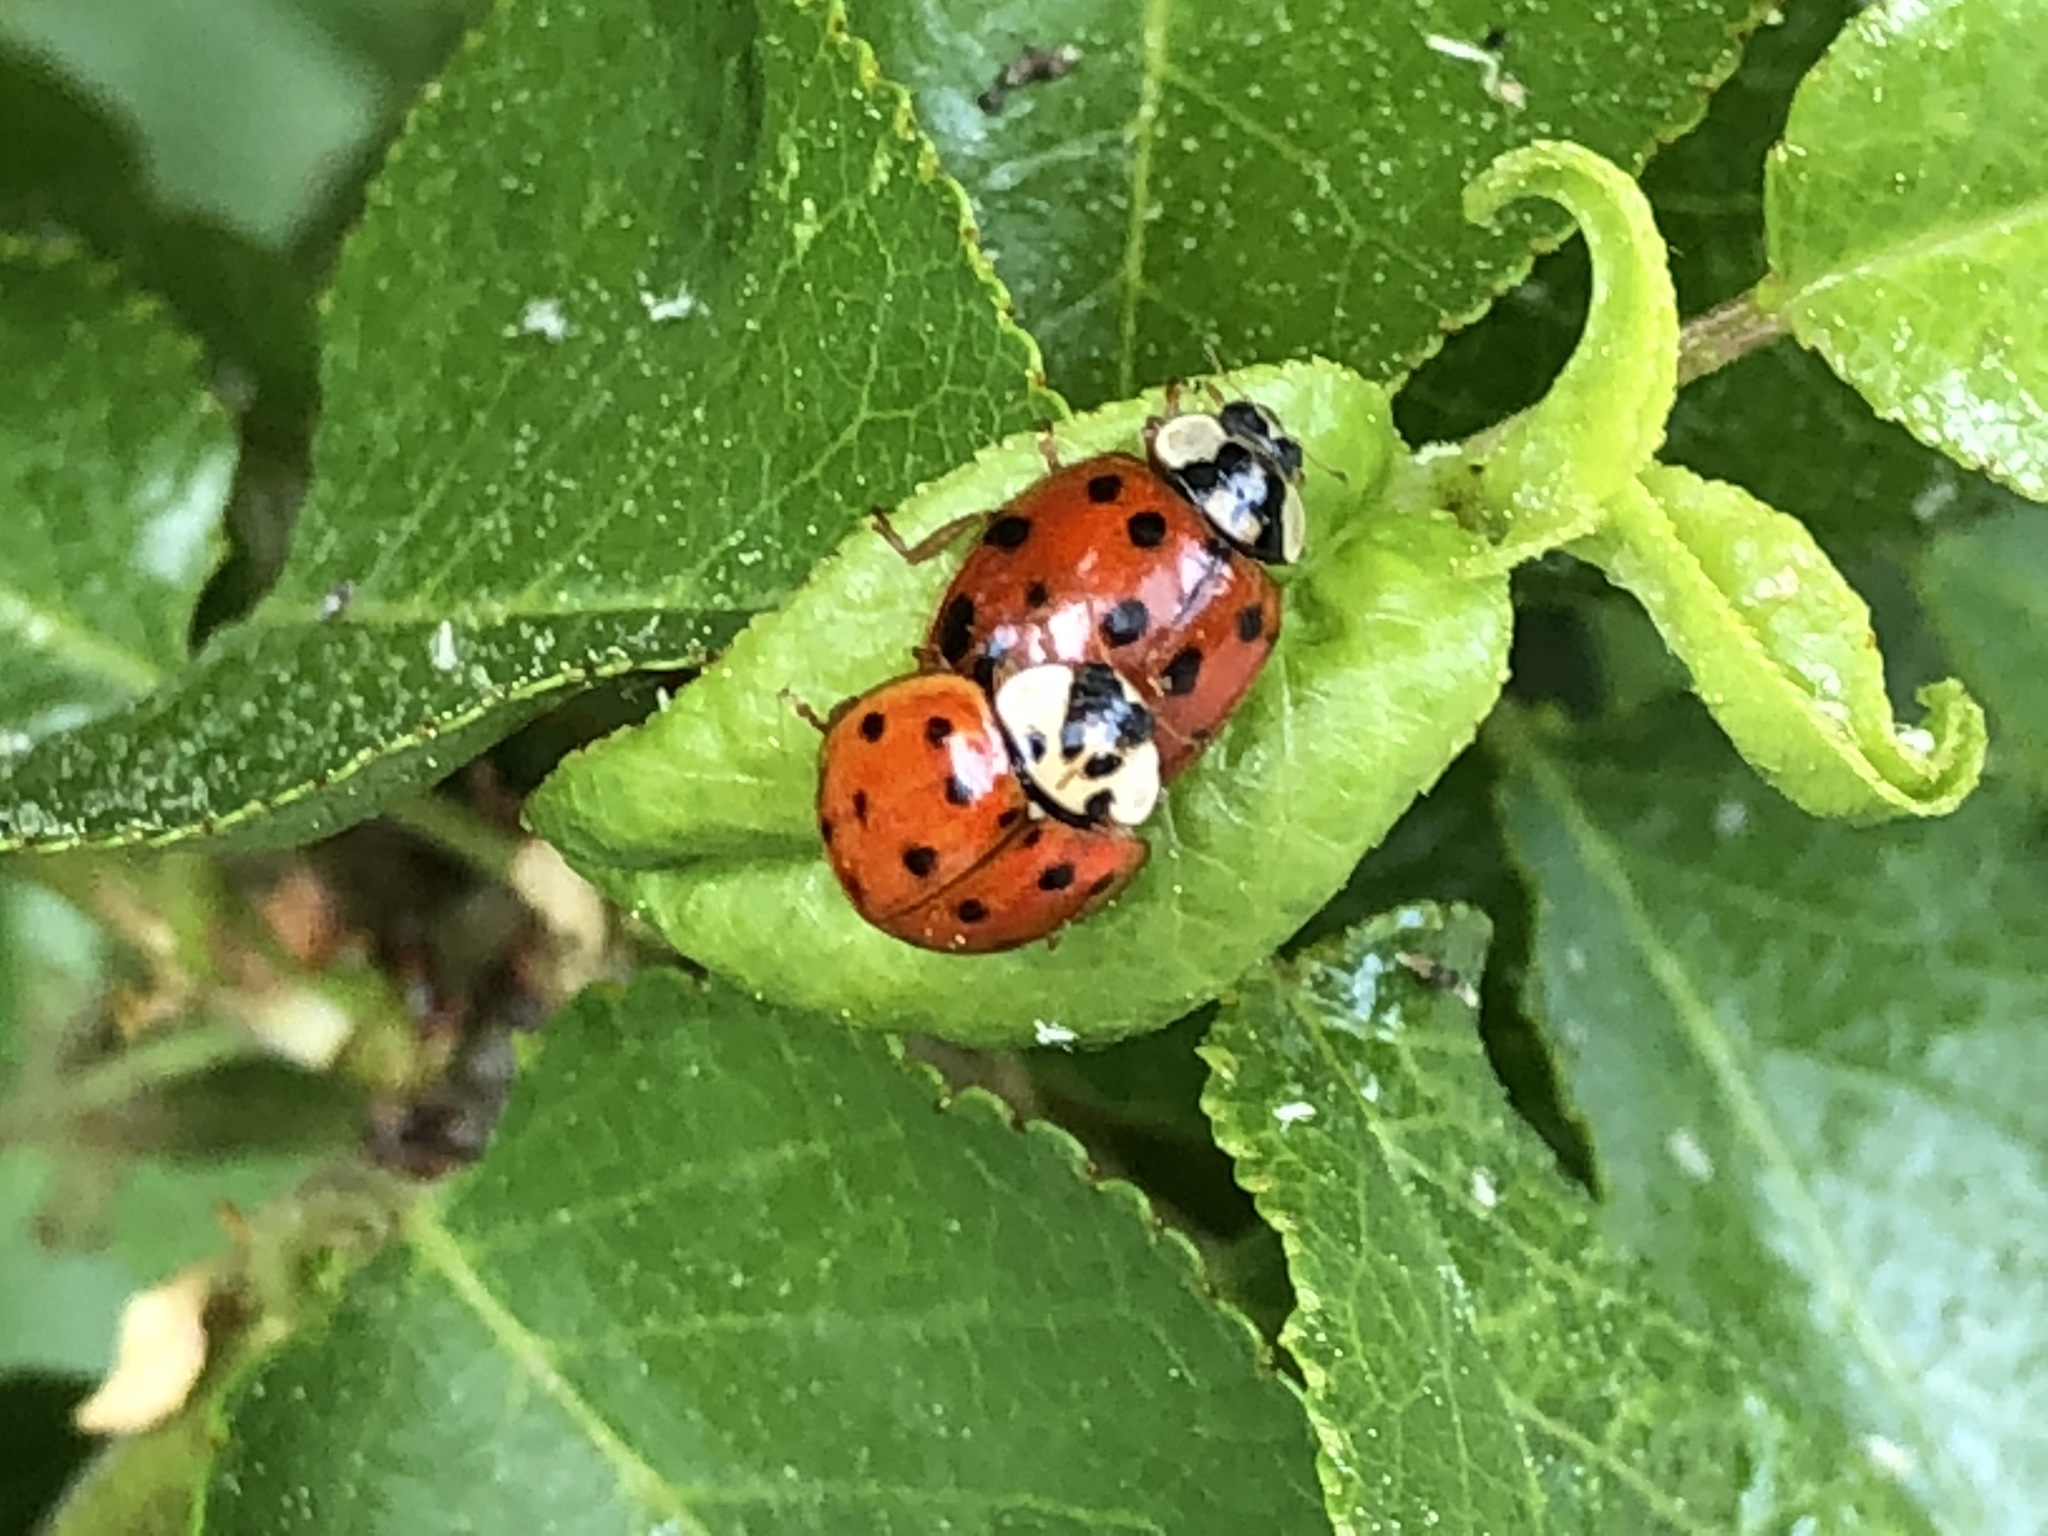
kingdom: Animalia
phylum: Arthropoda
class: Insecta
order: Coleoptera
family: Coccinellidae
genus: Harmonia
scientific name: Harmonia axyridis
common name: Harlequin ladybird
